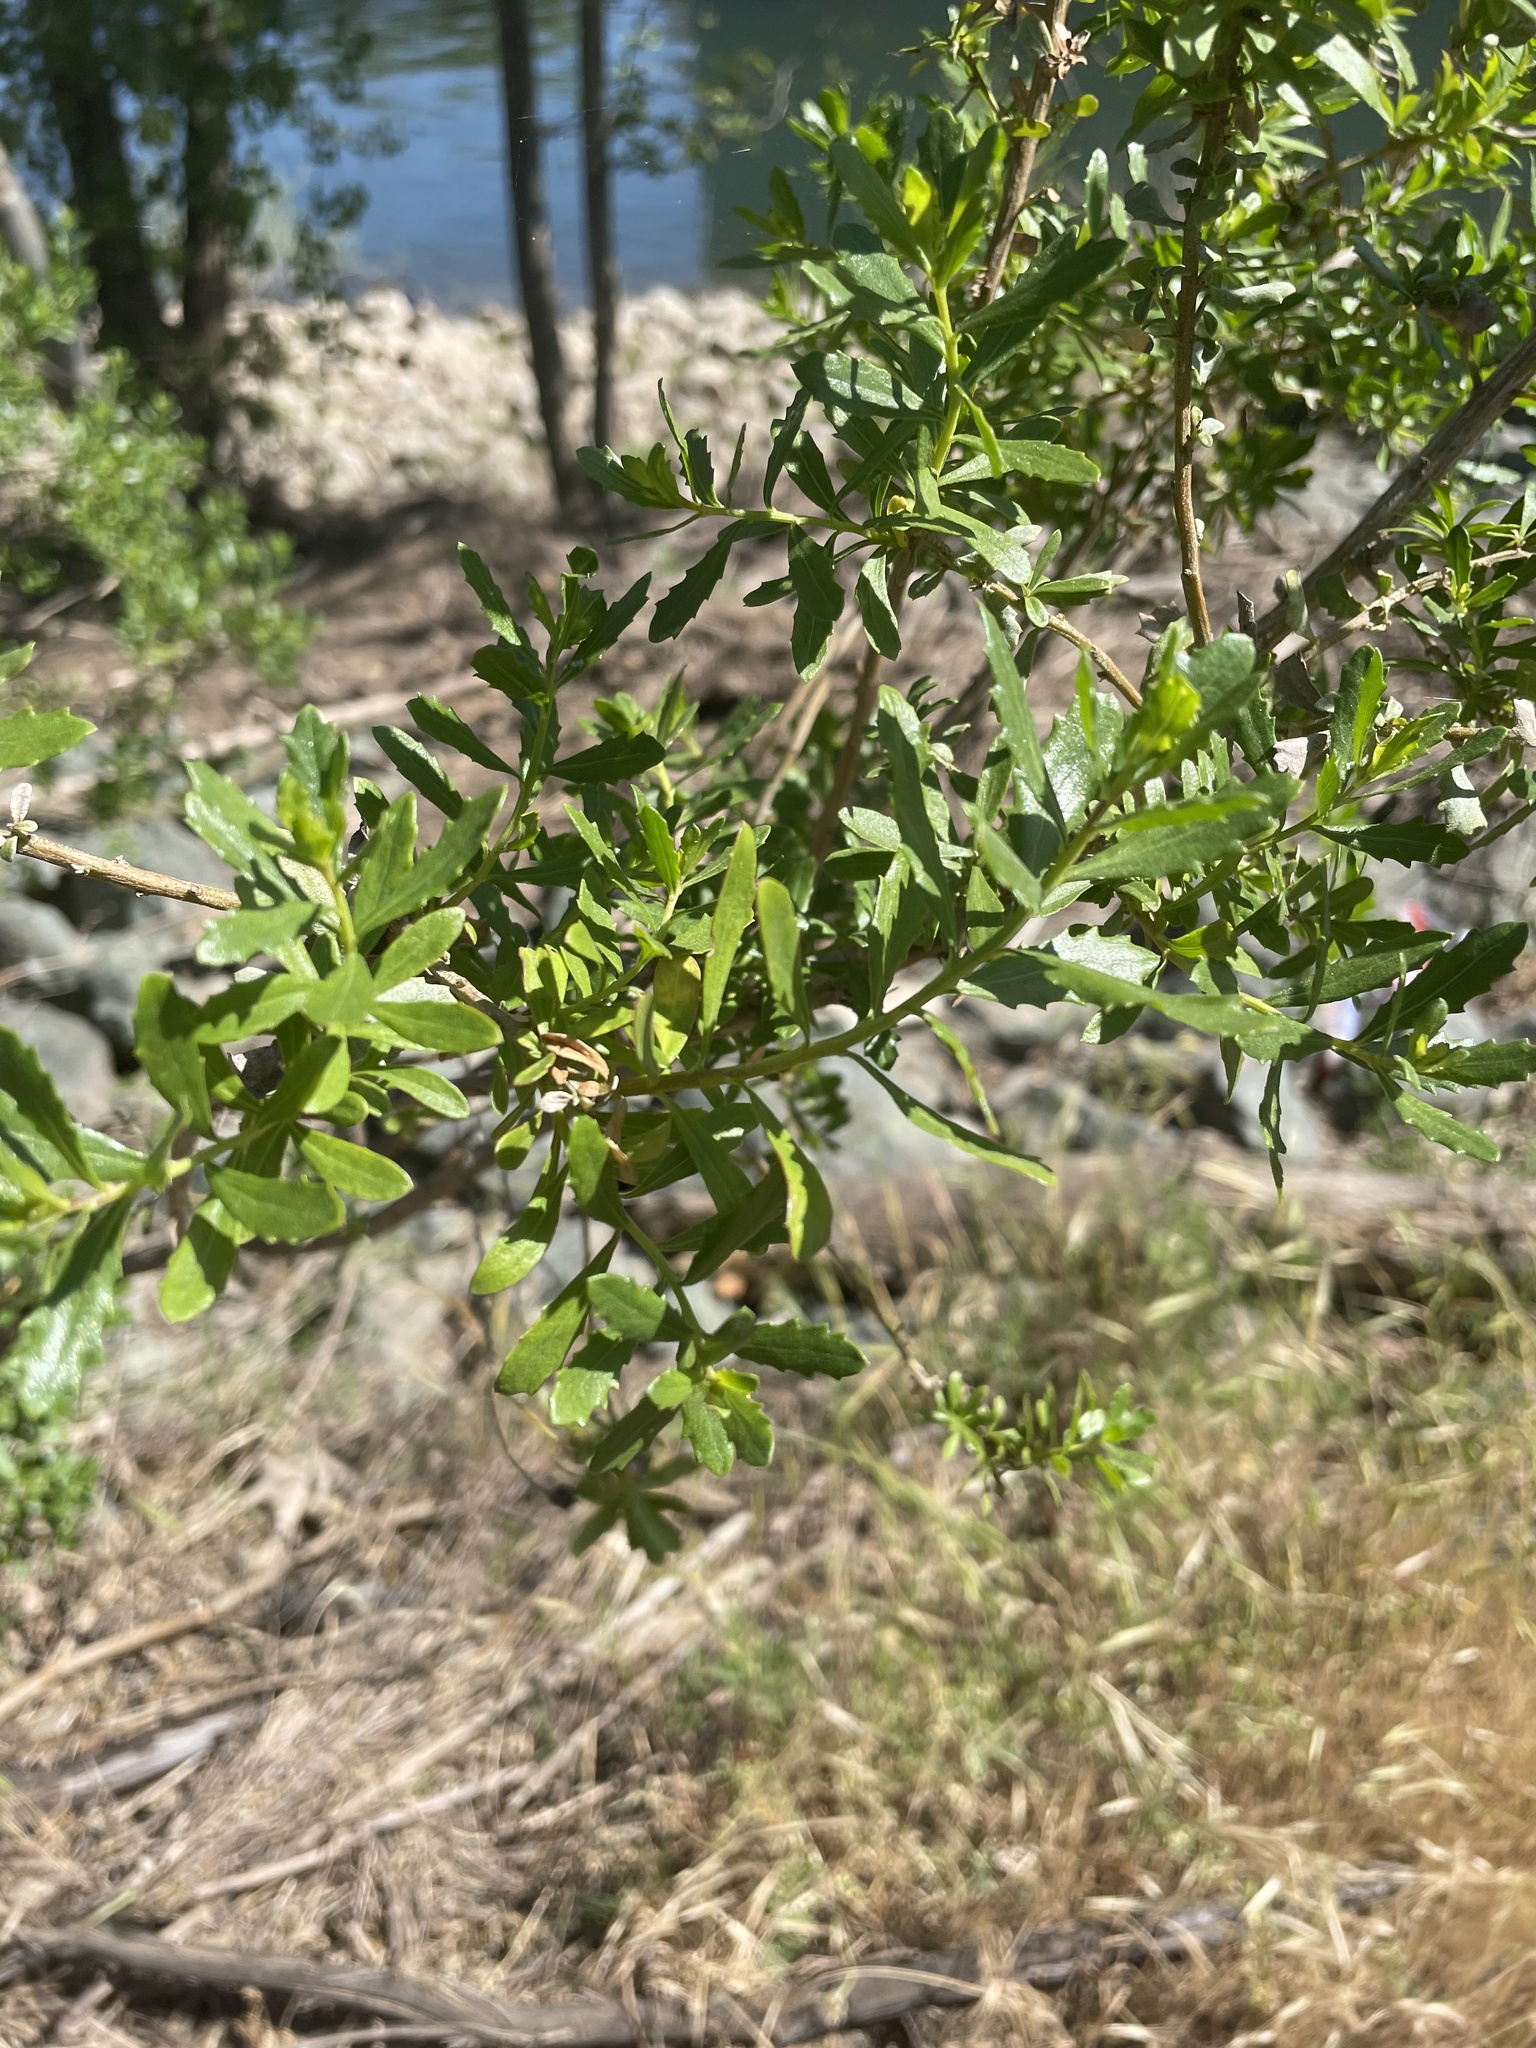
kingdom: Plantae
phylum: Tracheophyta
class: Magnoliopsida
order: Asterales
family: Asteraceae
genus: Baccharis
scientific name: Baccharis pilularis
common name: Coyotebrush
